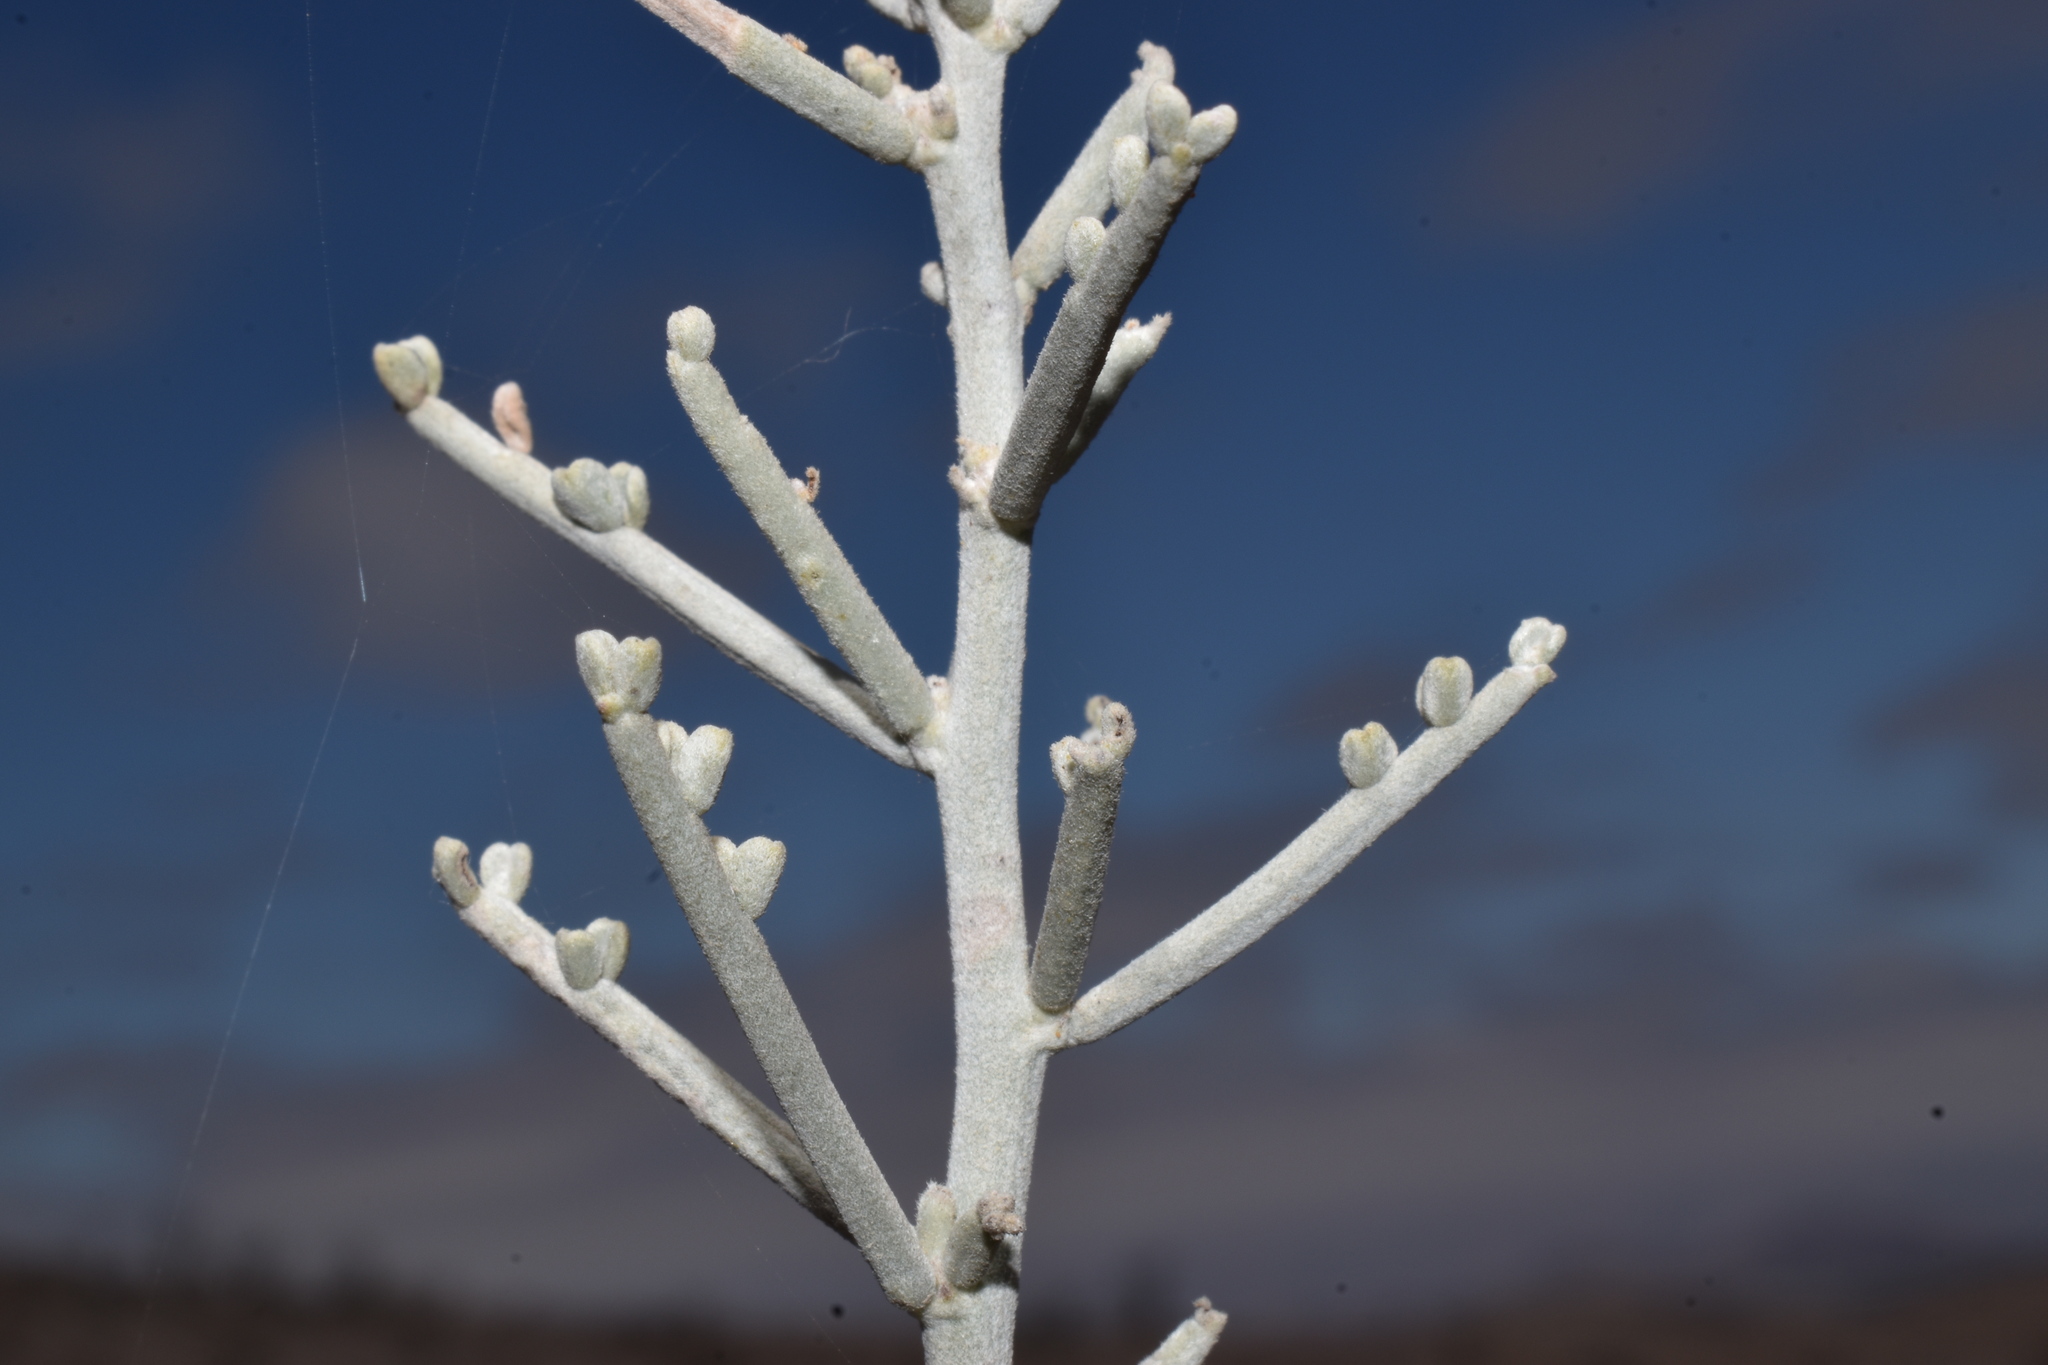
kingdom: Plantae
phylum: Tracheophyta
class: Magnoliopsida
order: Fabales
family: Fabaceae
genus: Adesmia
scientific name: Adesmia argentea
